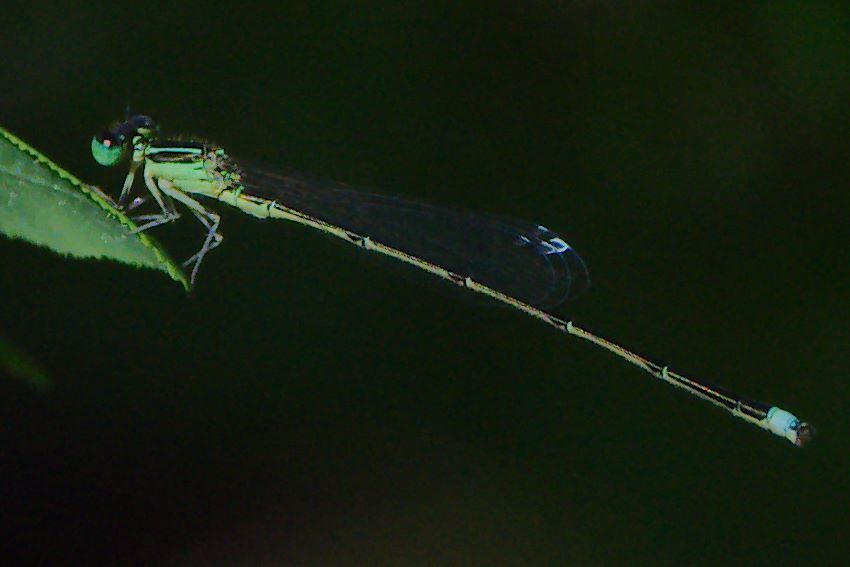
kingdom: Animalia
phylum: Arthropoda
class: Insecta
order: Odonata
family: Coenagrionidae
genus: Ischnura
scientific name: Ischnura prognata
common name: Furtive forktail
